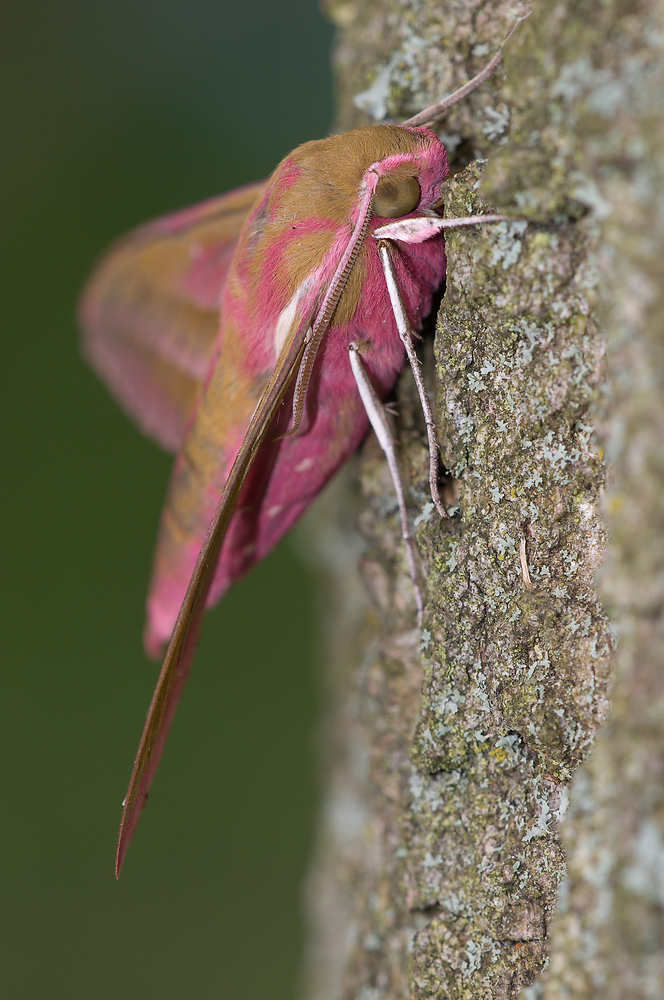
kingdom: Animalia
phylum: Arthropoda
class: Insecta
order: Lepidoptera
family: Sphingidae
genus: Deilephila
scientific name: Deilephila elpenor
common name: Elephant hawk-moth
